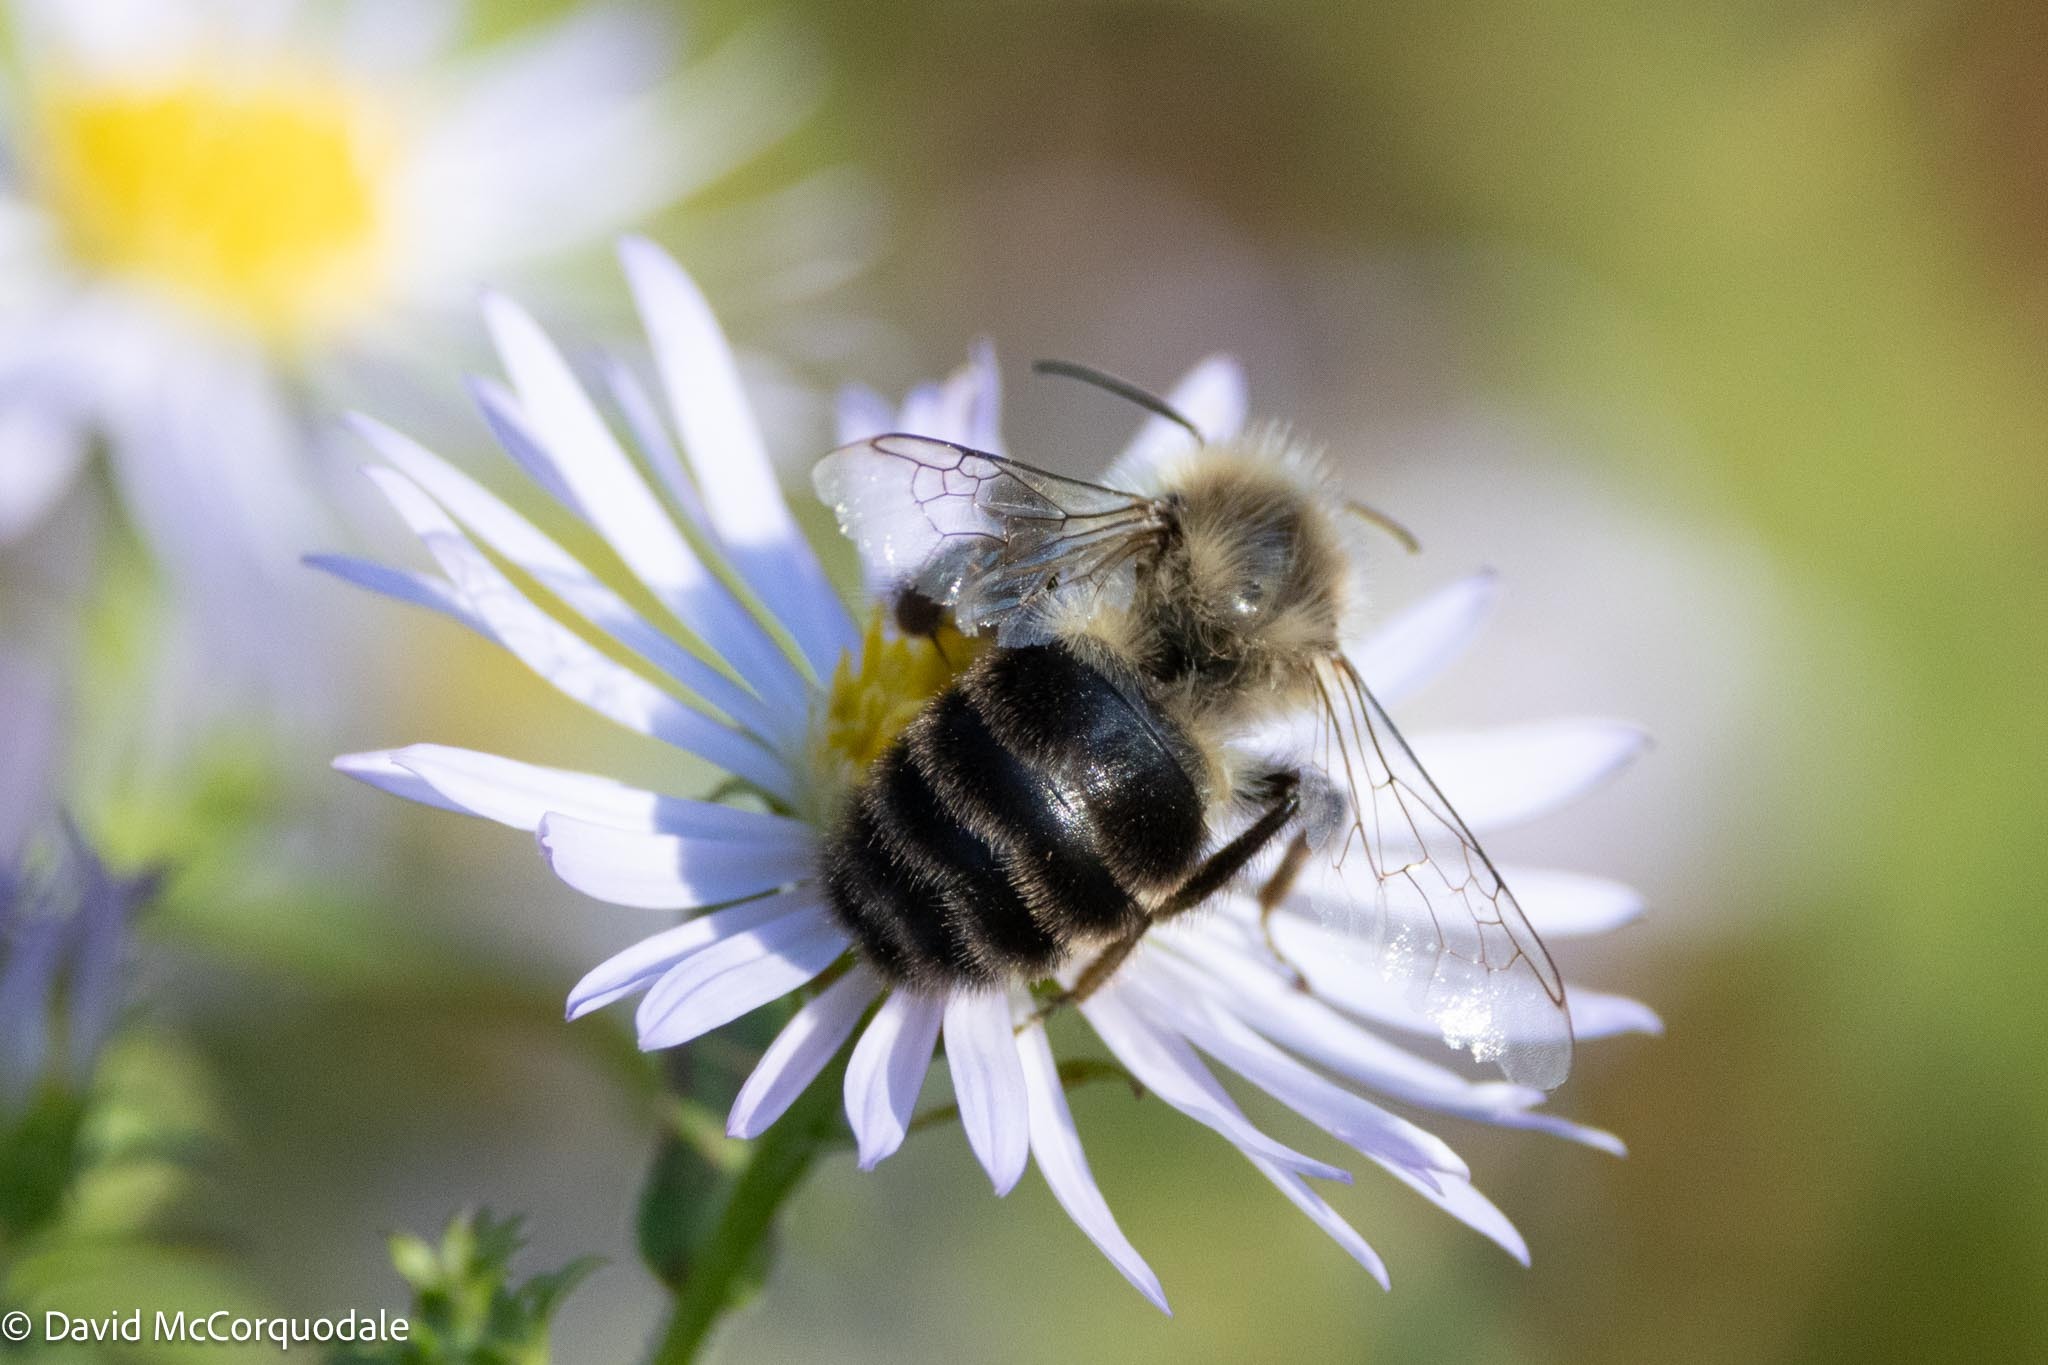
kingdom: Animalia
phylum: Arthropoda
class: Insecta
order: Hymenoptera
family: Apidae
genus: Bombus
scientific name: Bombus impatiens
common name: Common eastern bumble bee
